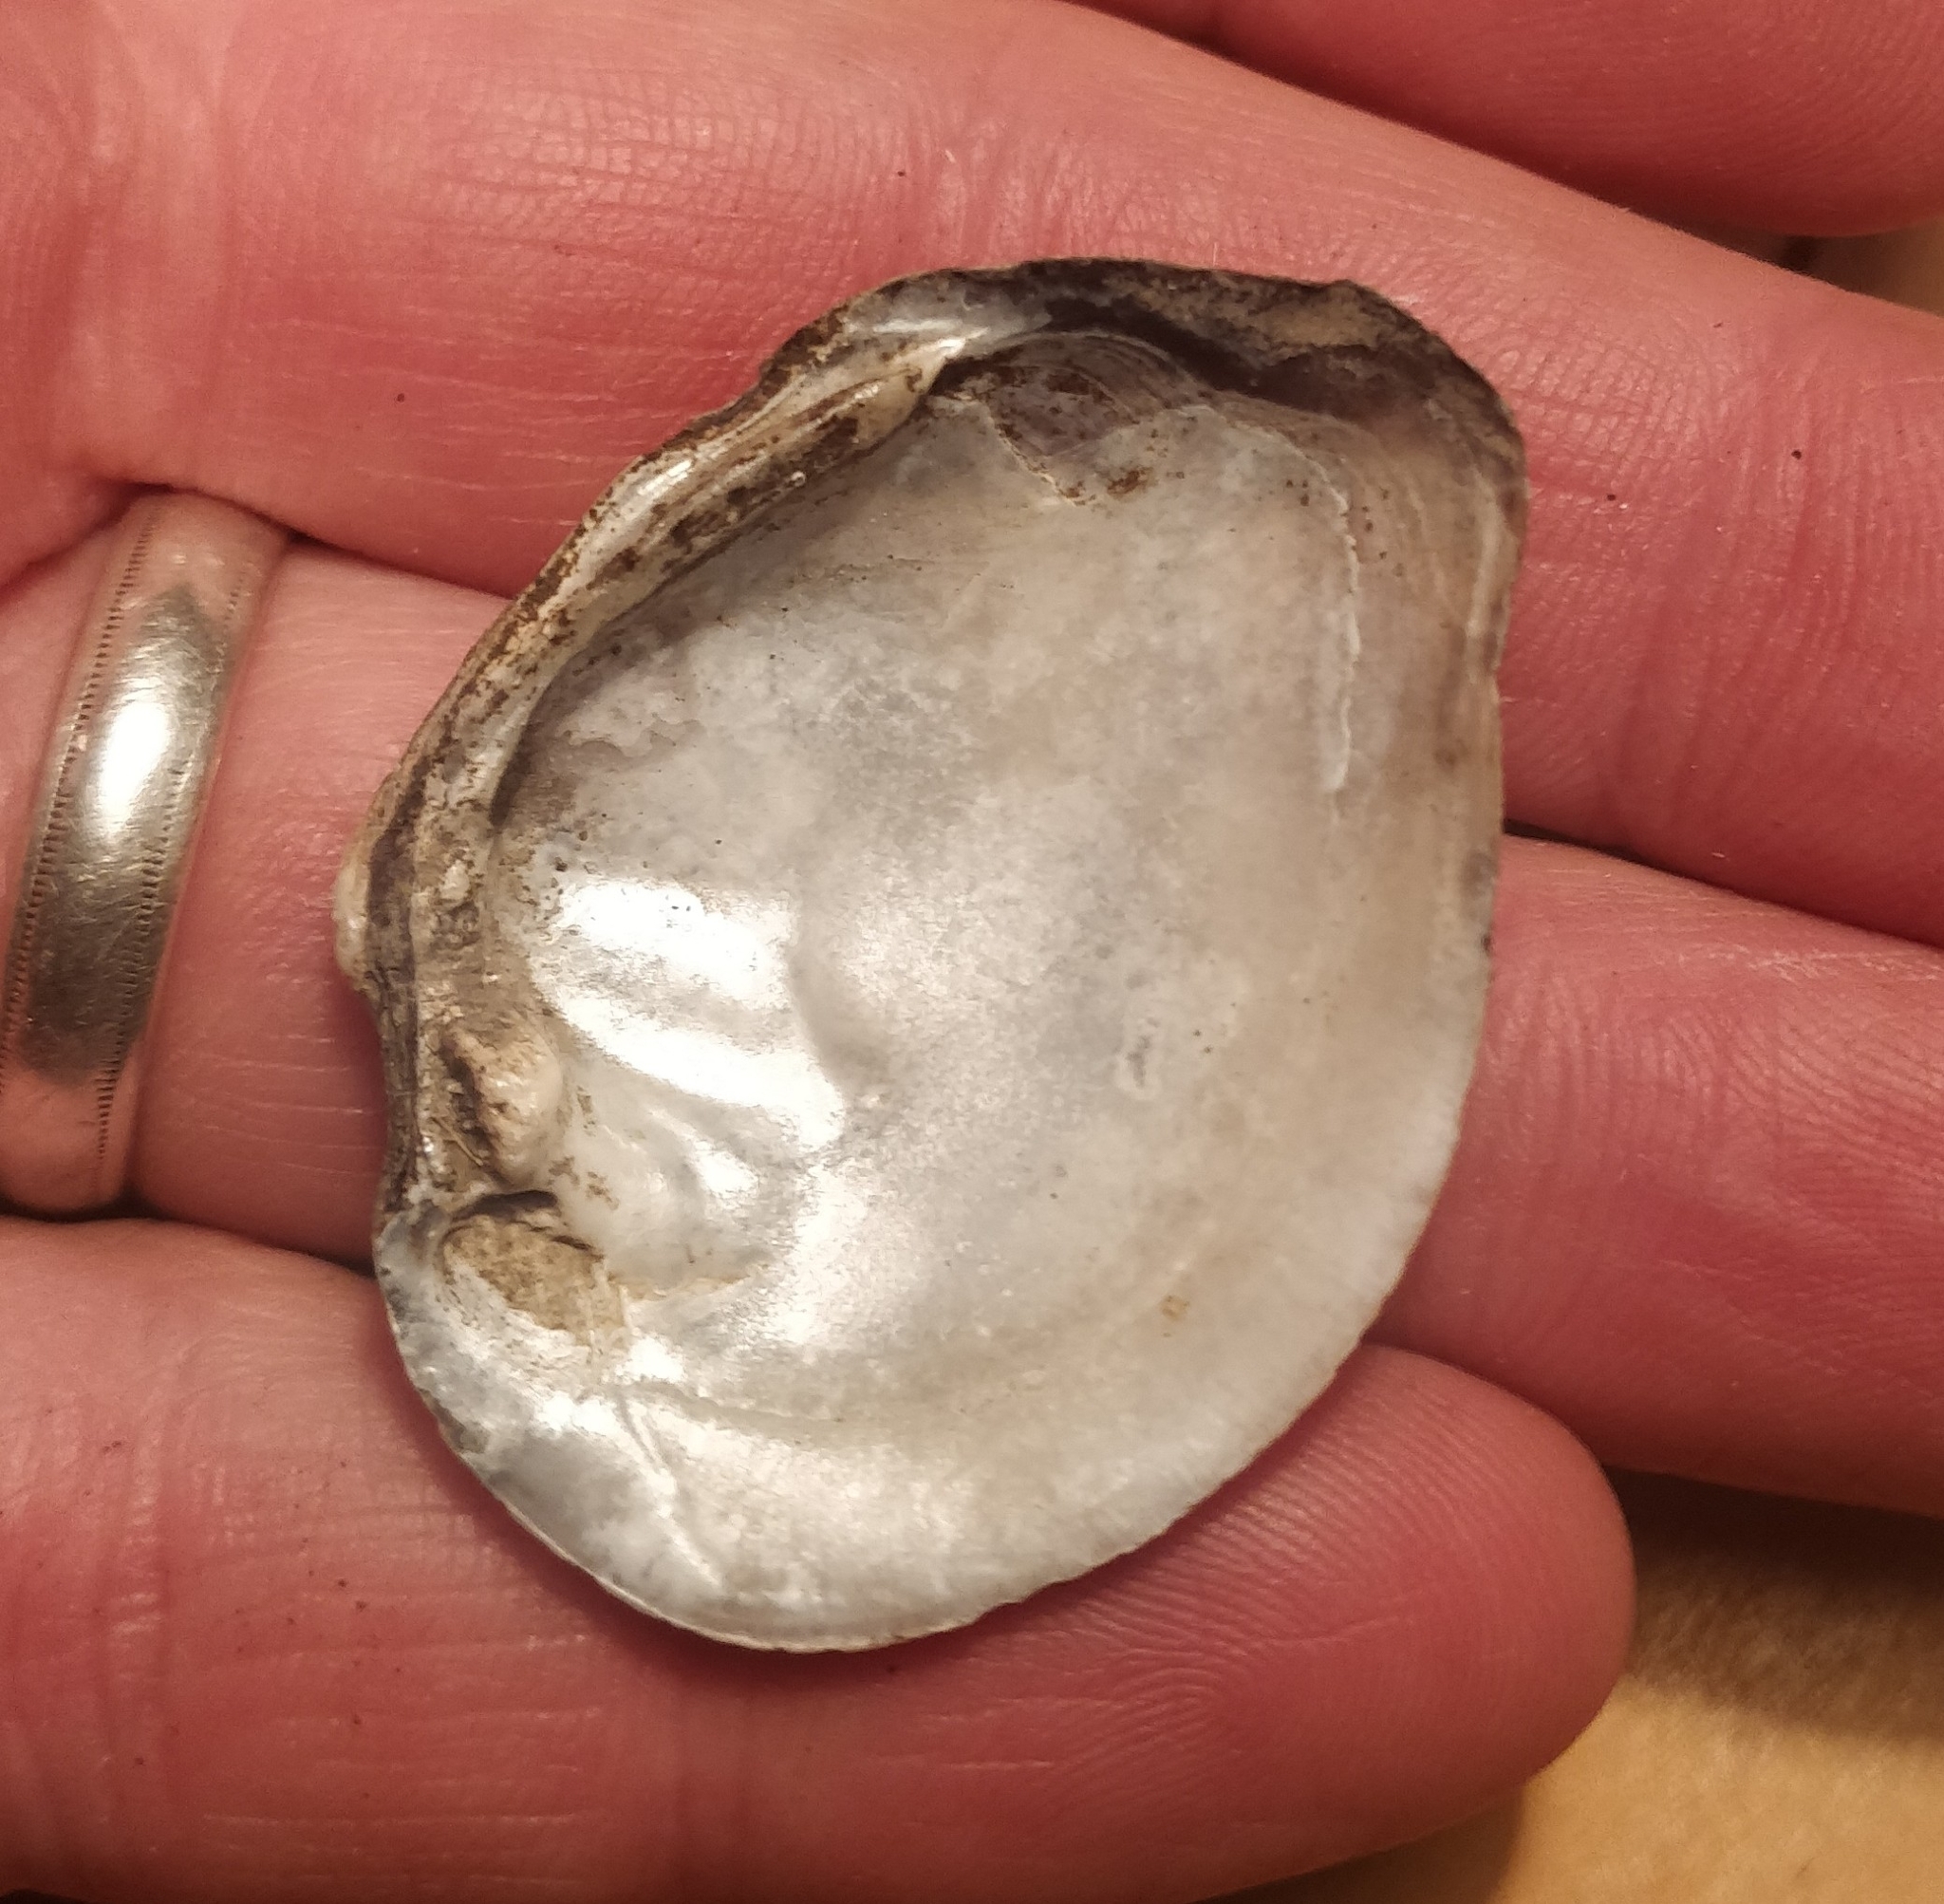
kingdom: Animalia
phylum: Mollusca
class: Bivalvia
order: Unionida
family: Unionidae
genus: Fusconaia
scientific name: Fusconaia flava
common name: Wabash pigtoe
